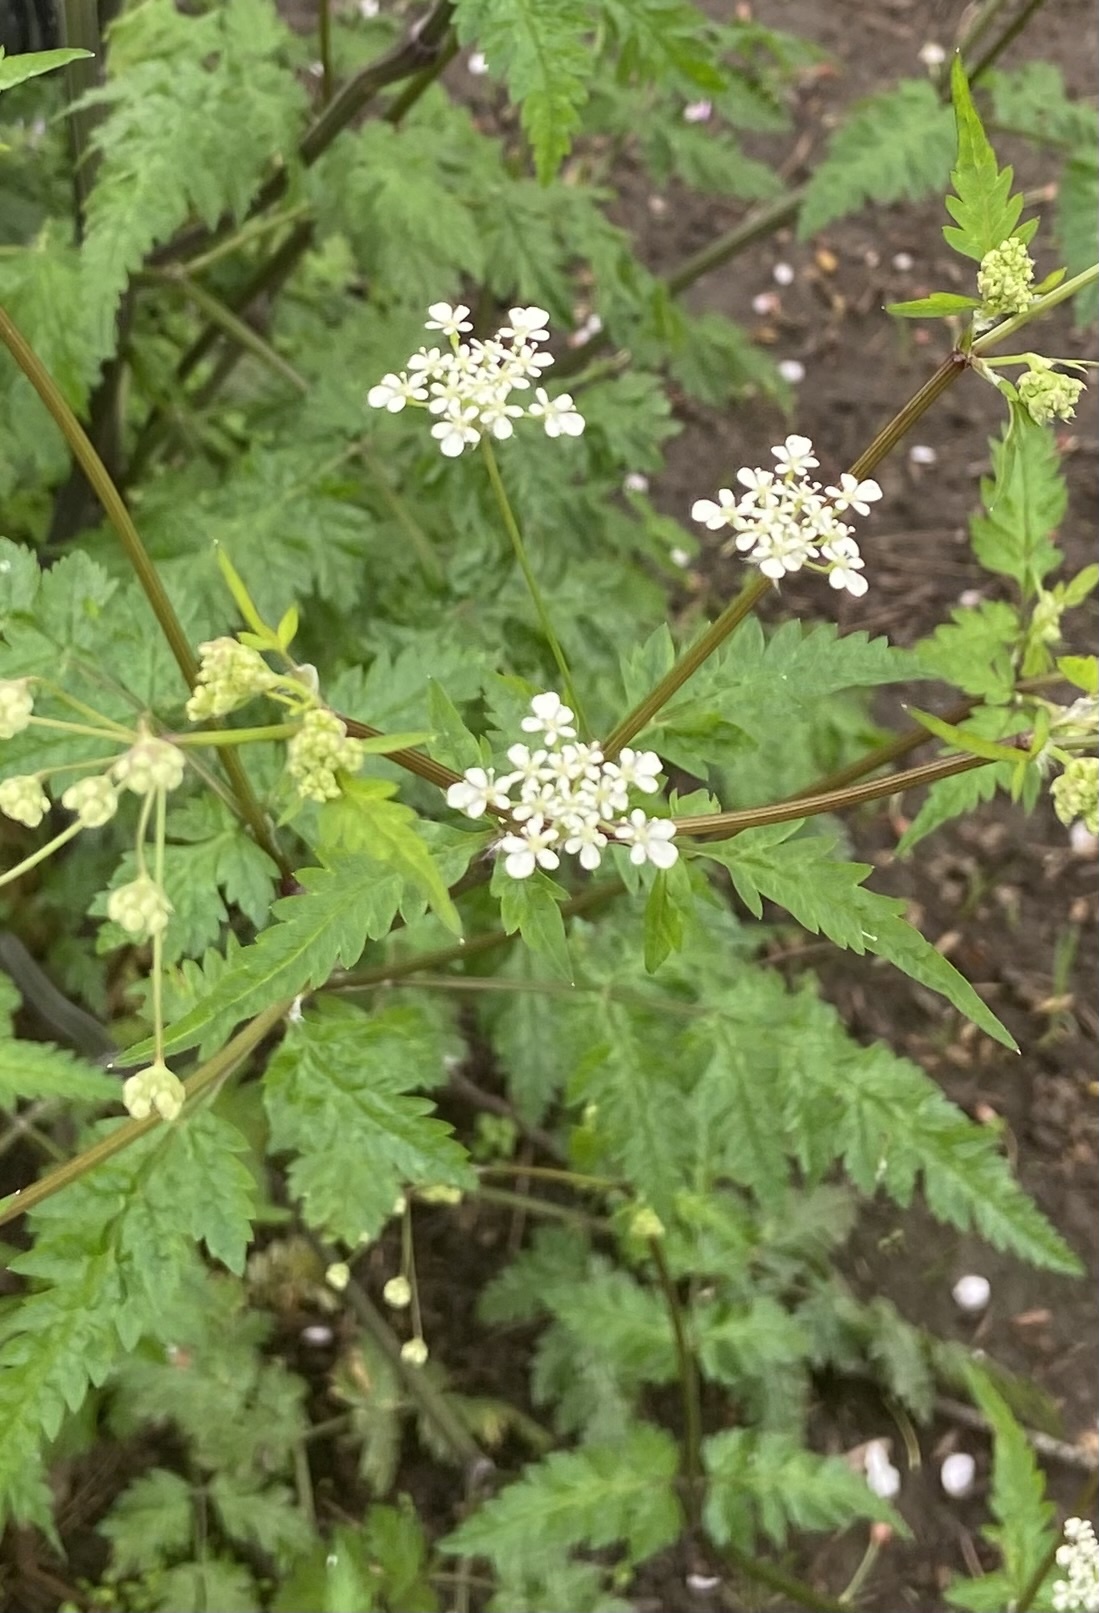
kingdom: Plantae
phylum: Tracheophyta
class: Magnoliopsida
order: Apiales
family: Apiaceae
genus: Anthriscus
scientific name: Anthriscus sylvestris
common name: Cow parsley
